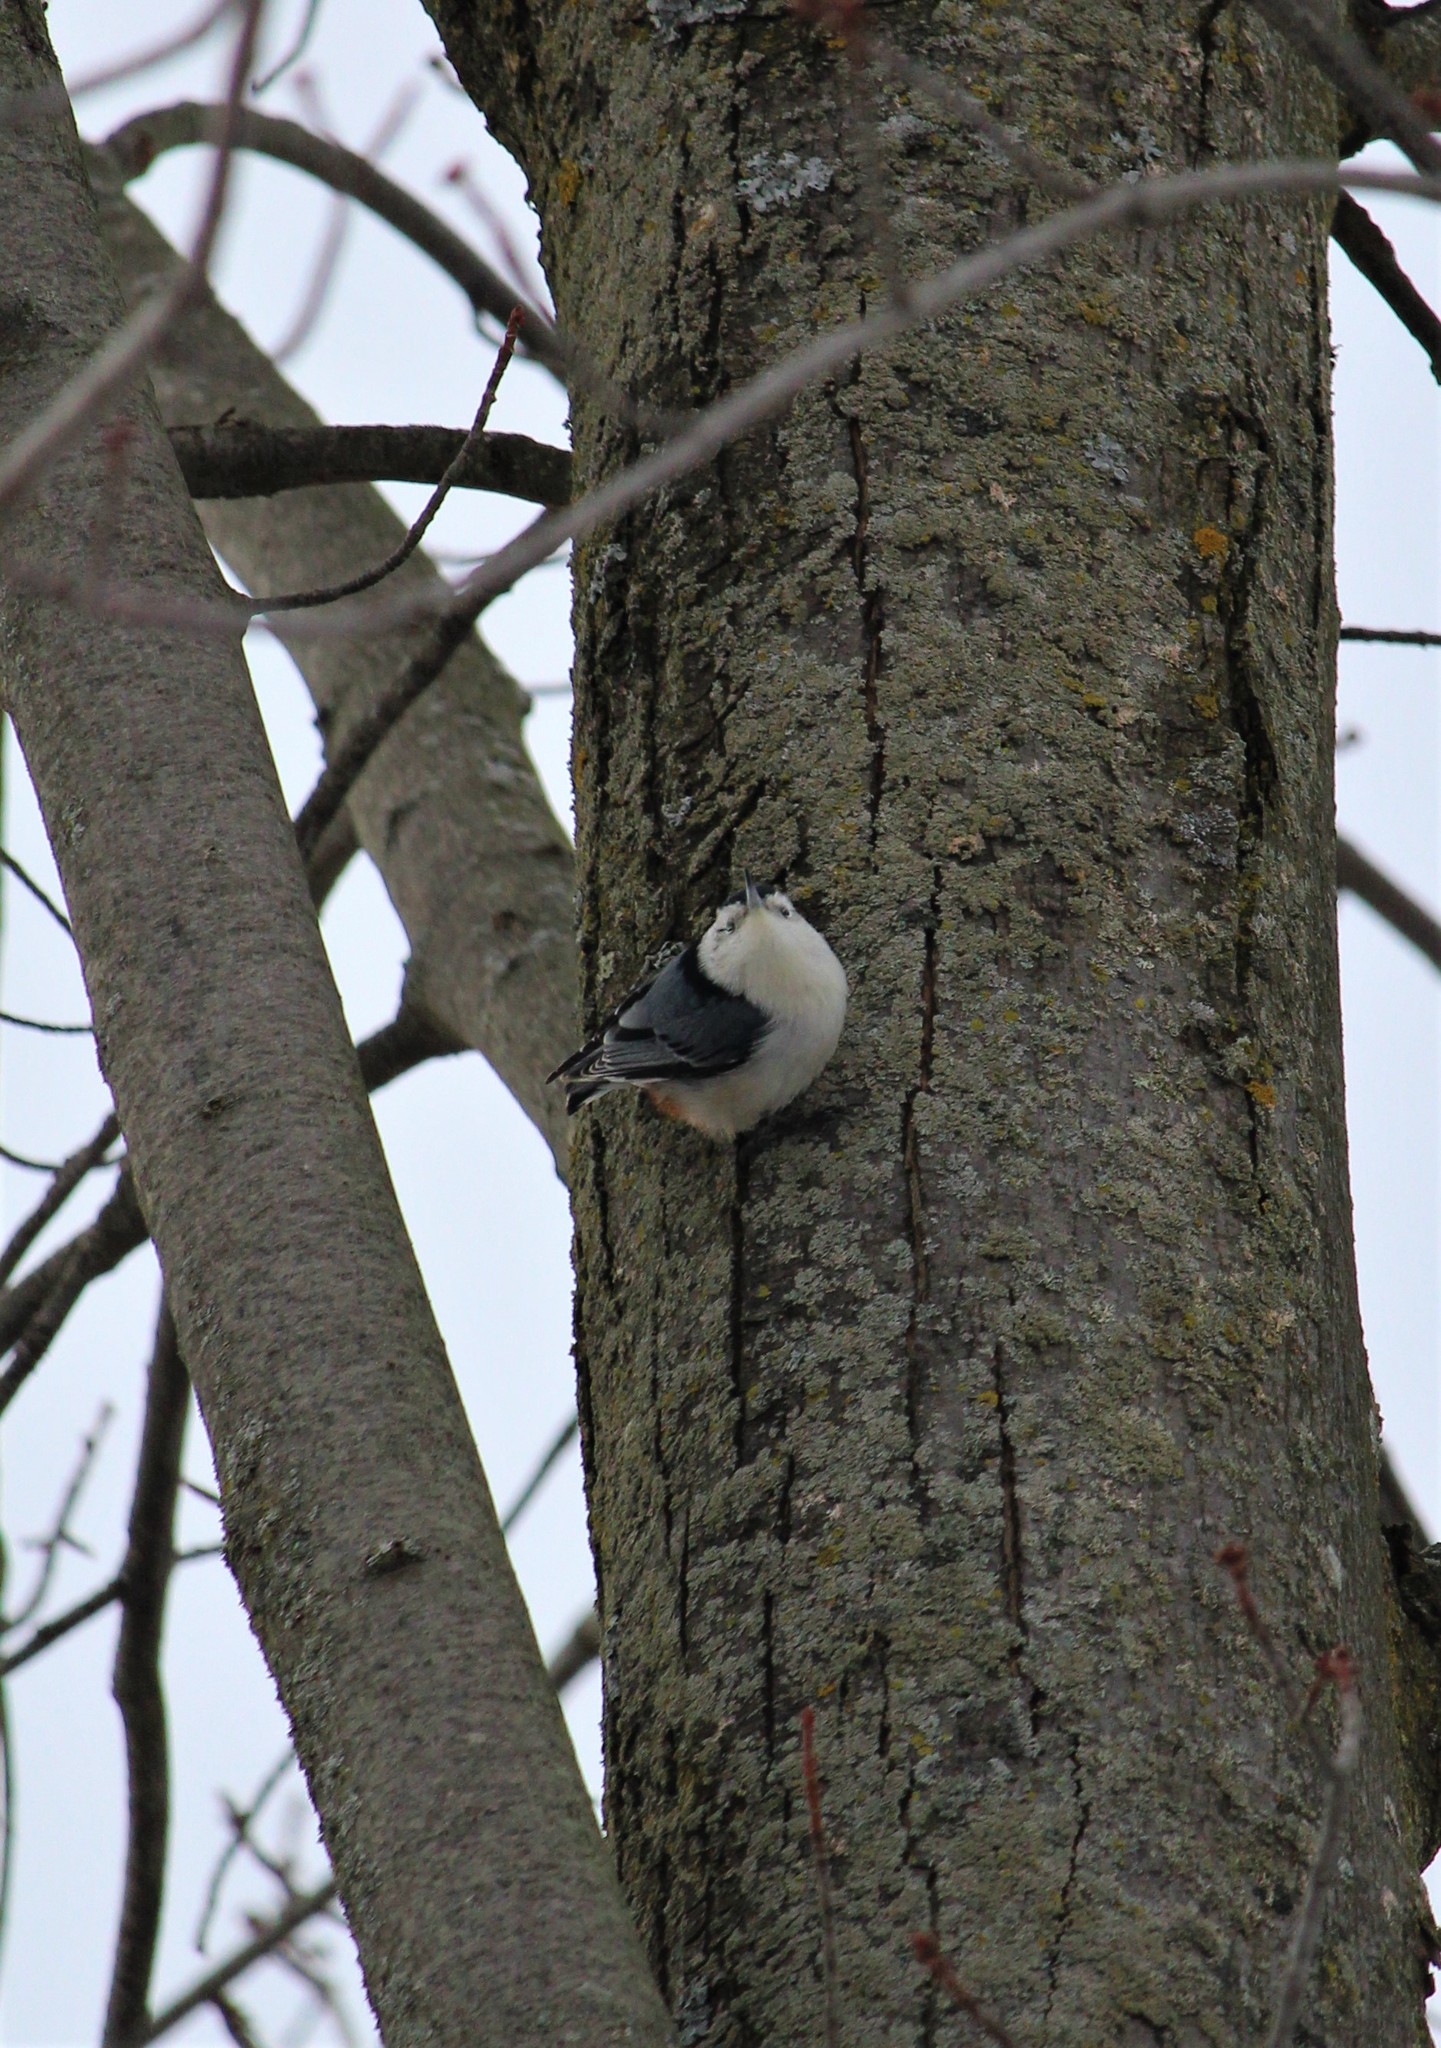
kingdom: Animalia
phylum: Chordata
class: Aves
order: Passeriformes
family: Sittidae
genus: Sitta
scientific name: Sitta carolinensis
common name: White-breasted nuthatch
